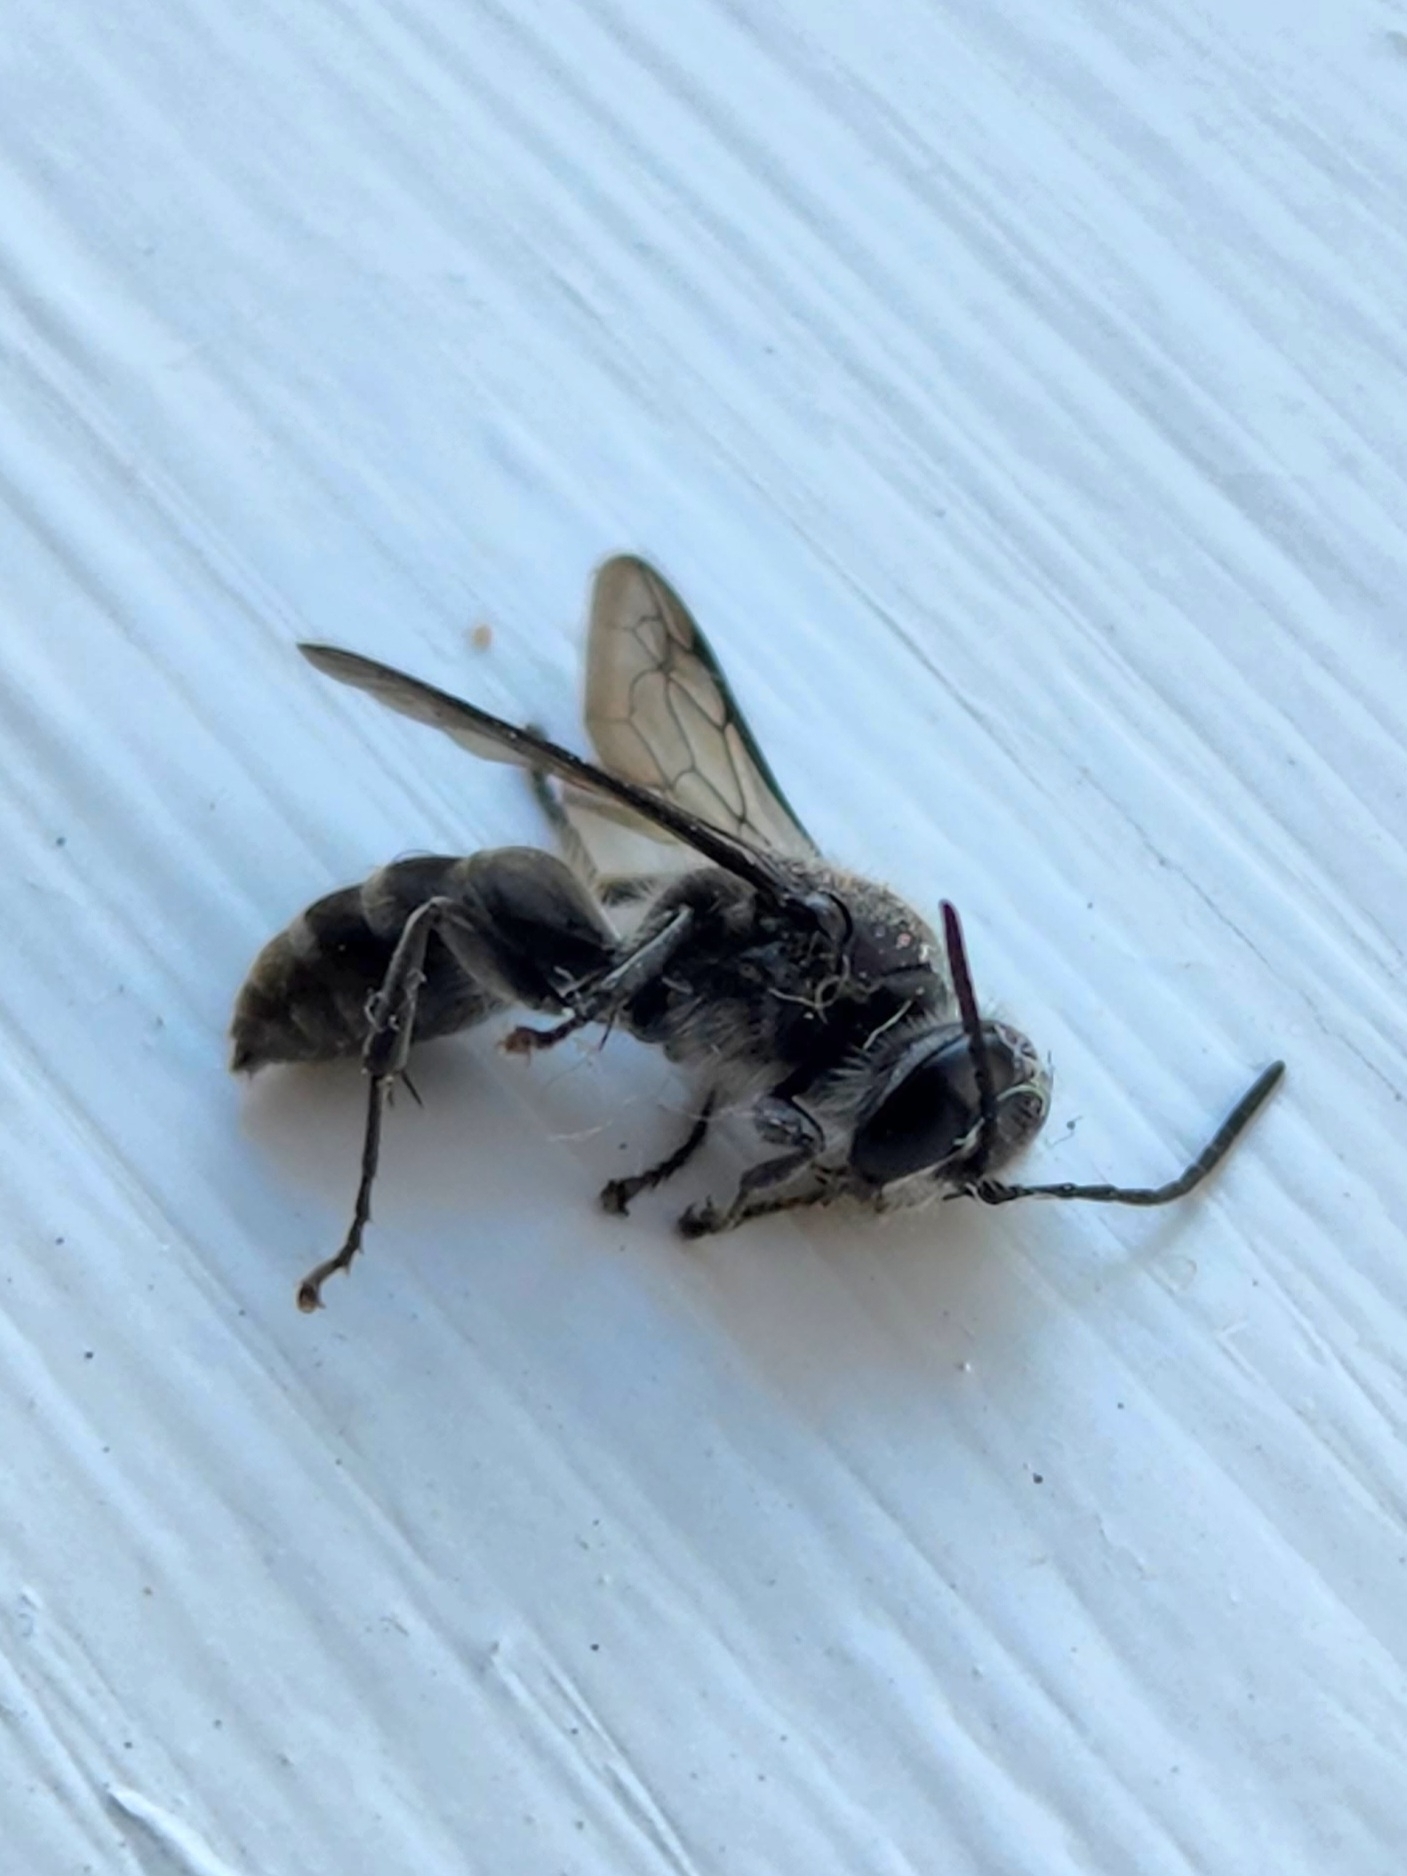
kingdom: Animalia
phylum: Arthropoda
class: Insecta
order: Hymenoptera
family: Crabronidae
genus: Pison
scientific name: Pison spinolae
